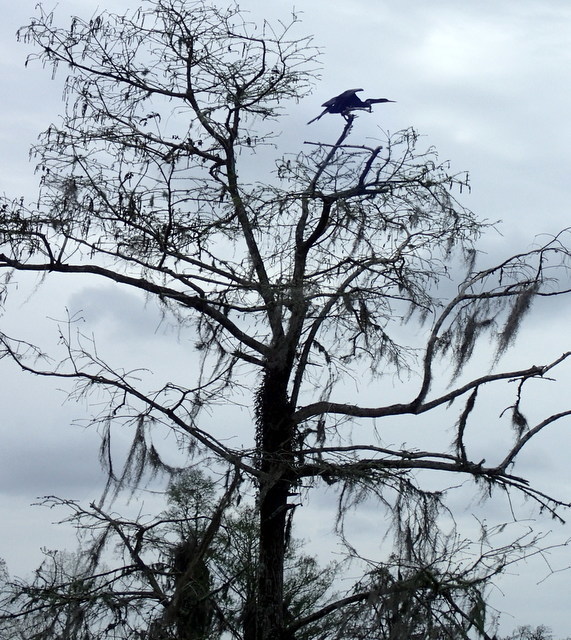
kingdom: Animalia
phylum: Chordata
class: Aves
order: Suliformes
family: Anhingidae
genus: Anhinga
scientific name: Anhinga anhinga
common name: Anhinga
